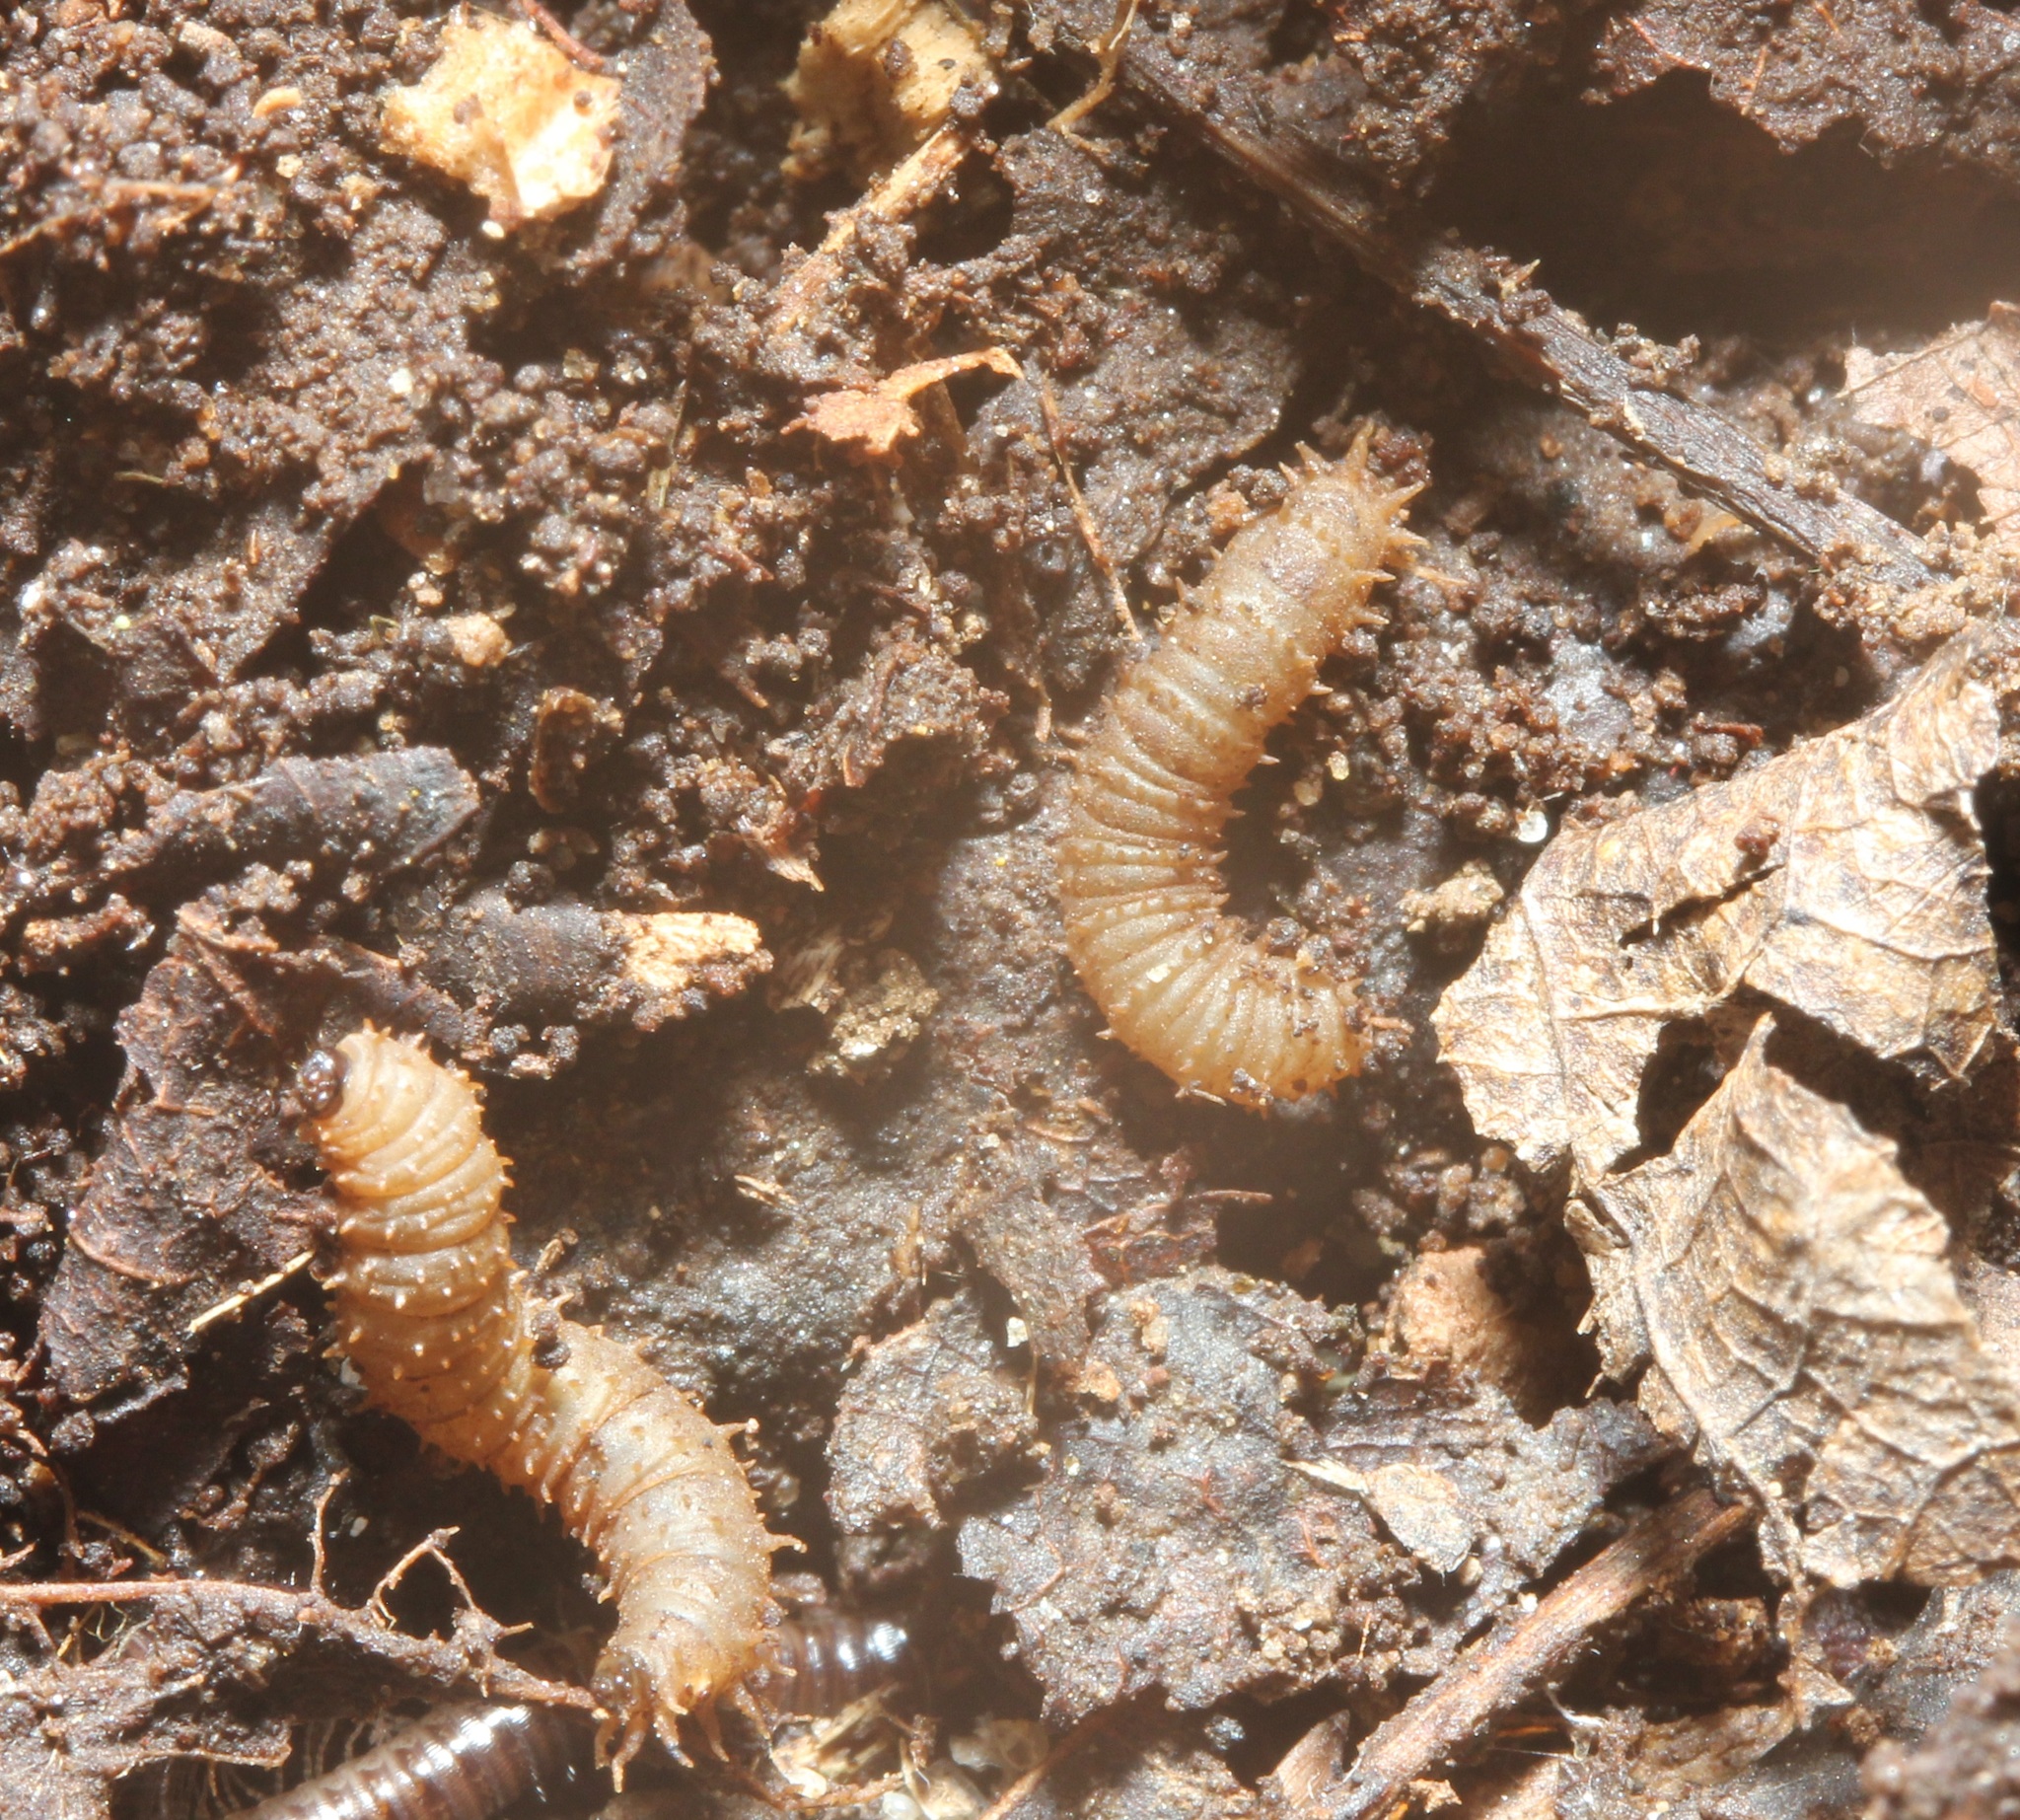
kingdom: Animalia
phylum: Arthropoda
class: Insecta
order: Diptera
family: Bibionidae
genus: Bibio
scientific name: Bibio
